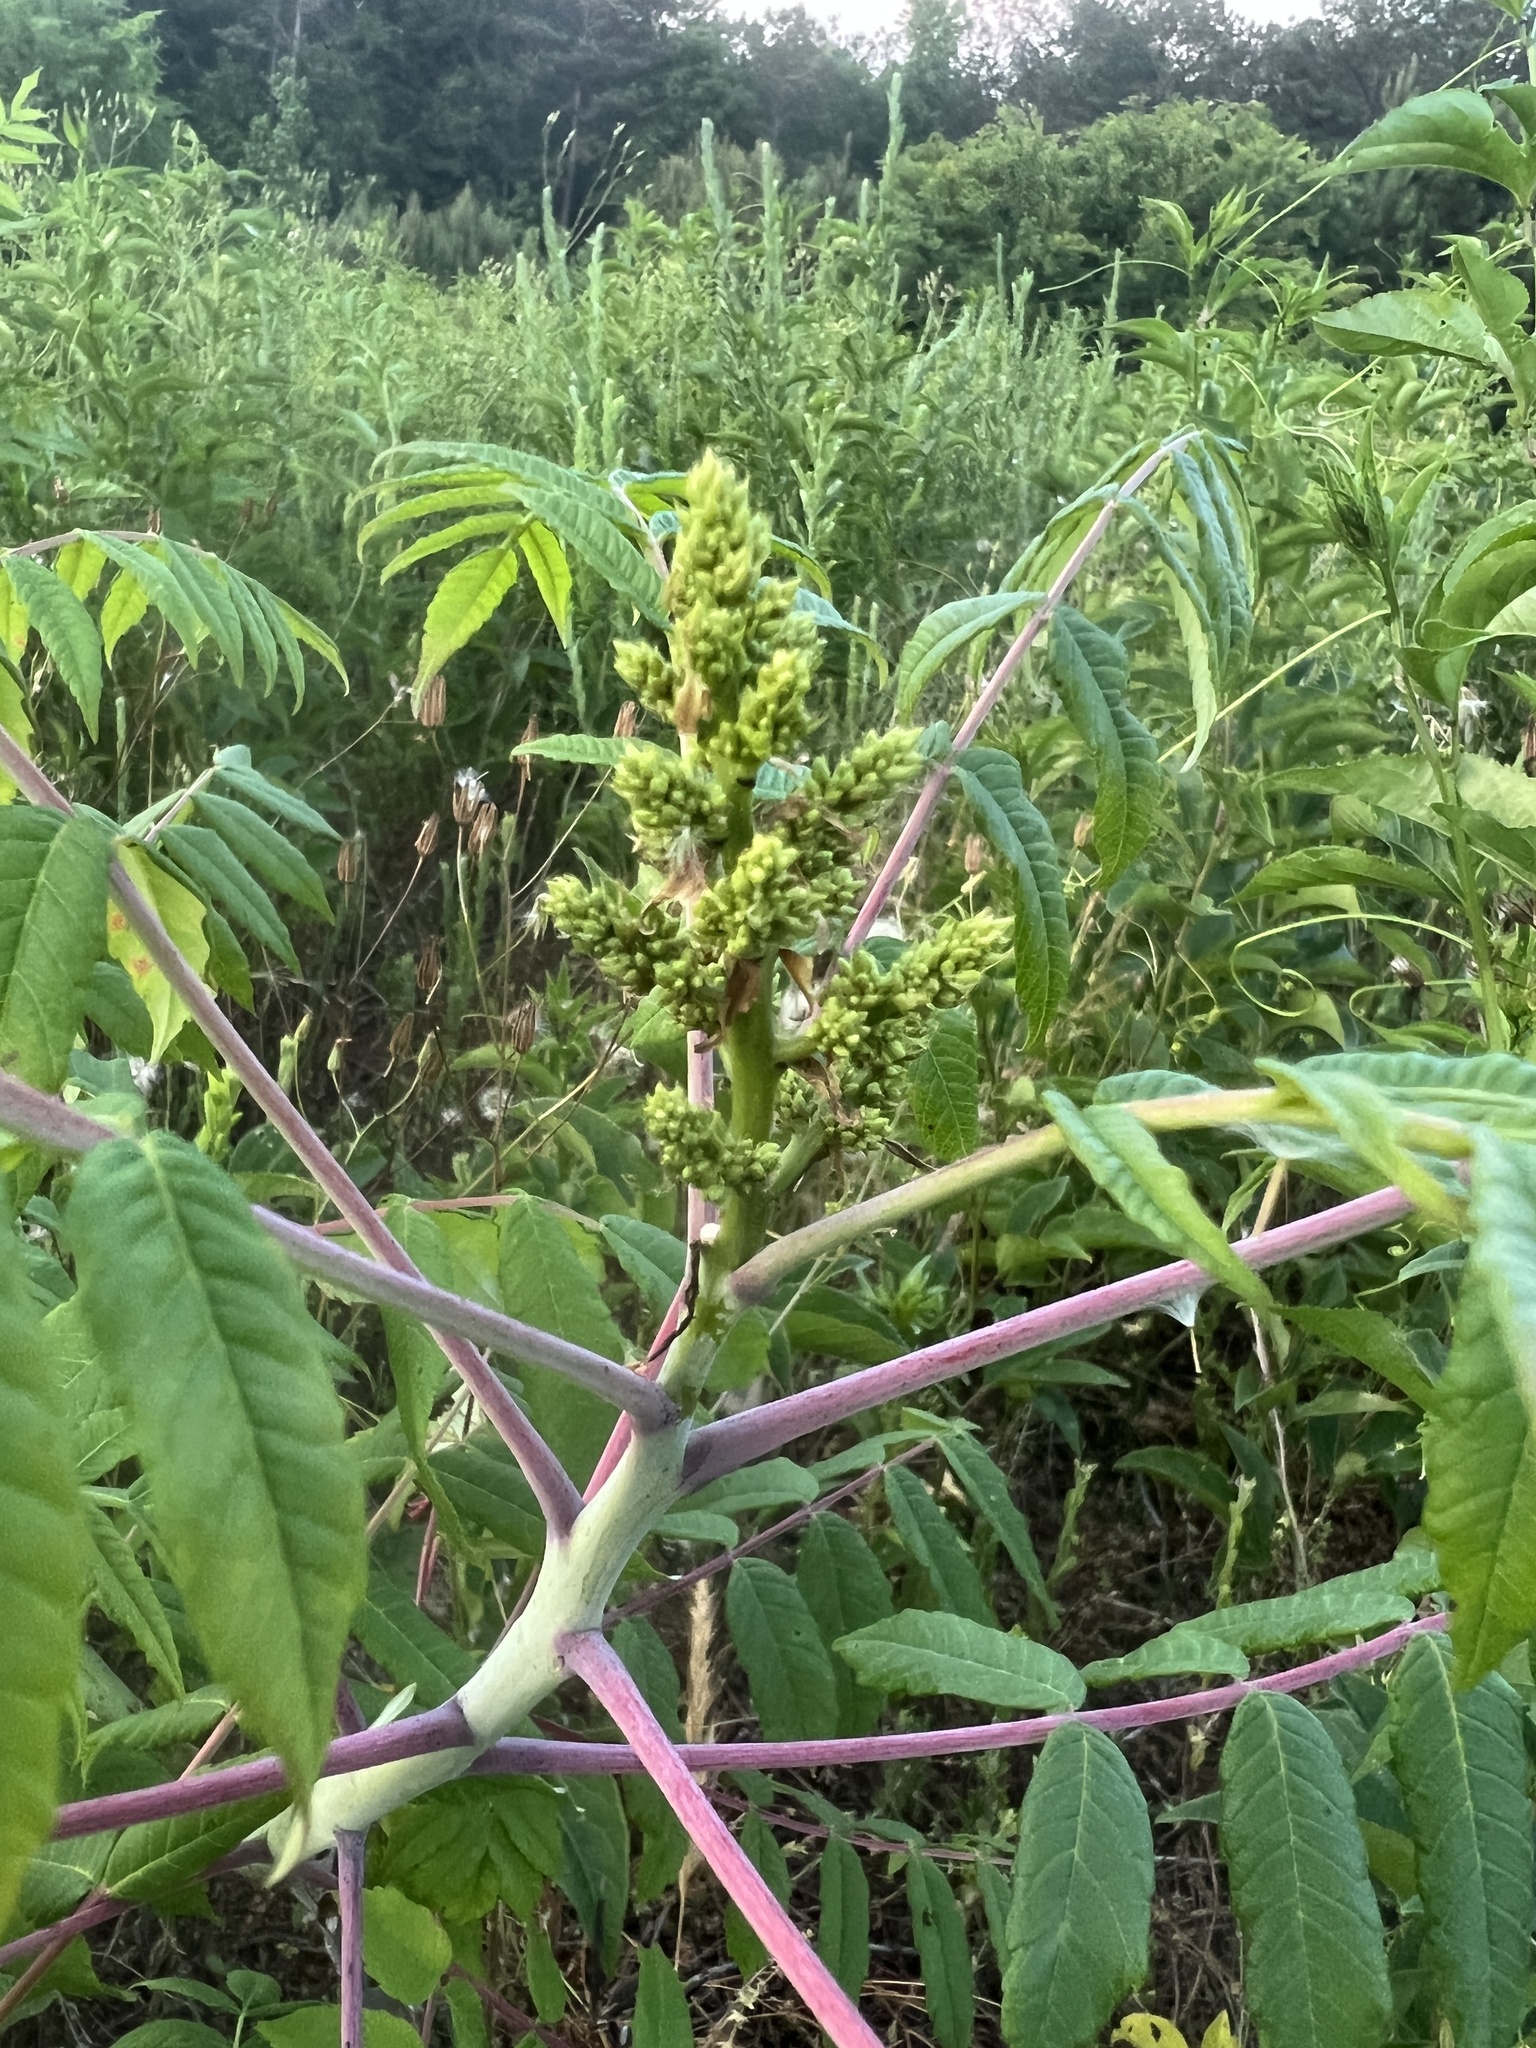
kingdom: Plantae
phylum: Tracheophyta
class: Magnoliopsida
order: Sapindales
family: Anacardiaceae
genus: Rhus
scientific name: Rhus glabra
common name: Scarlet sumac
